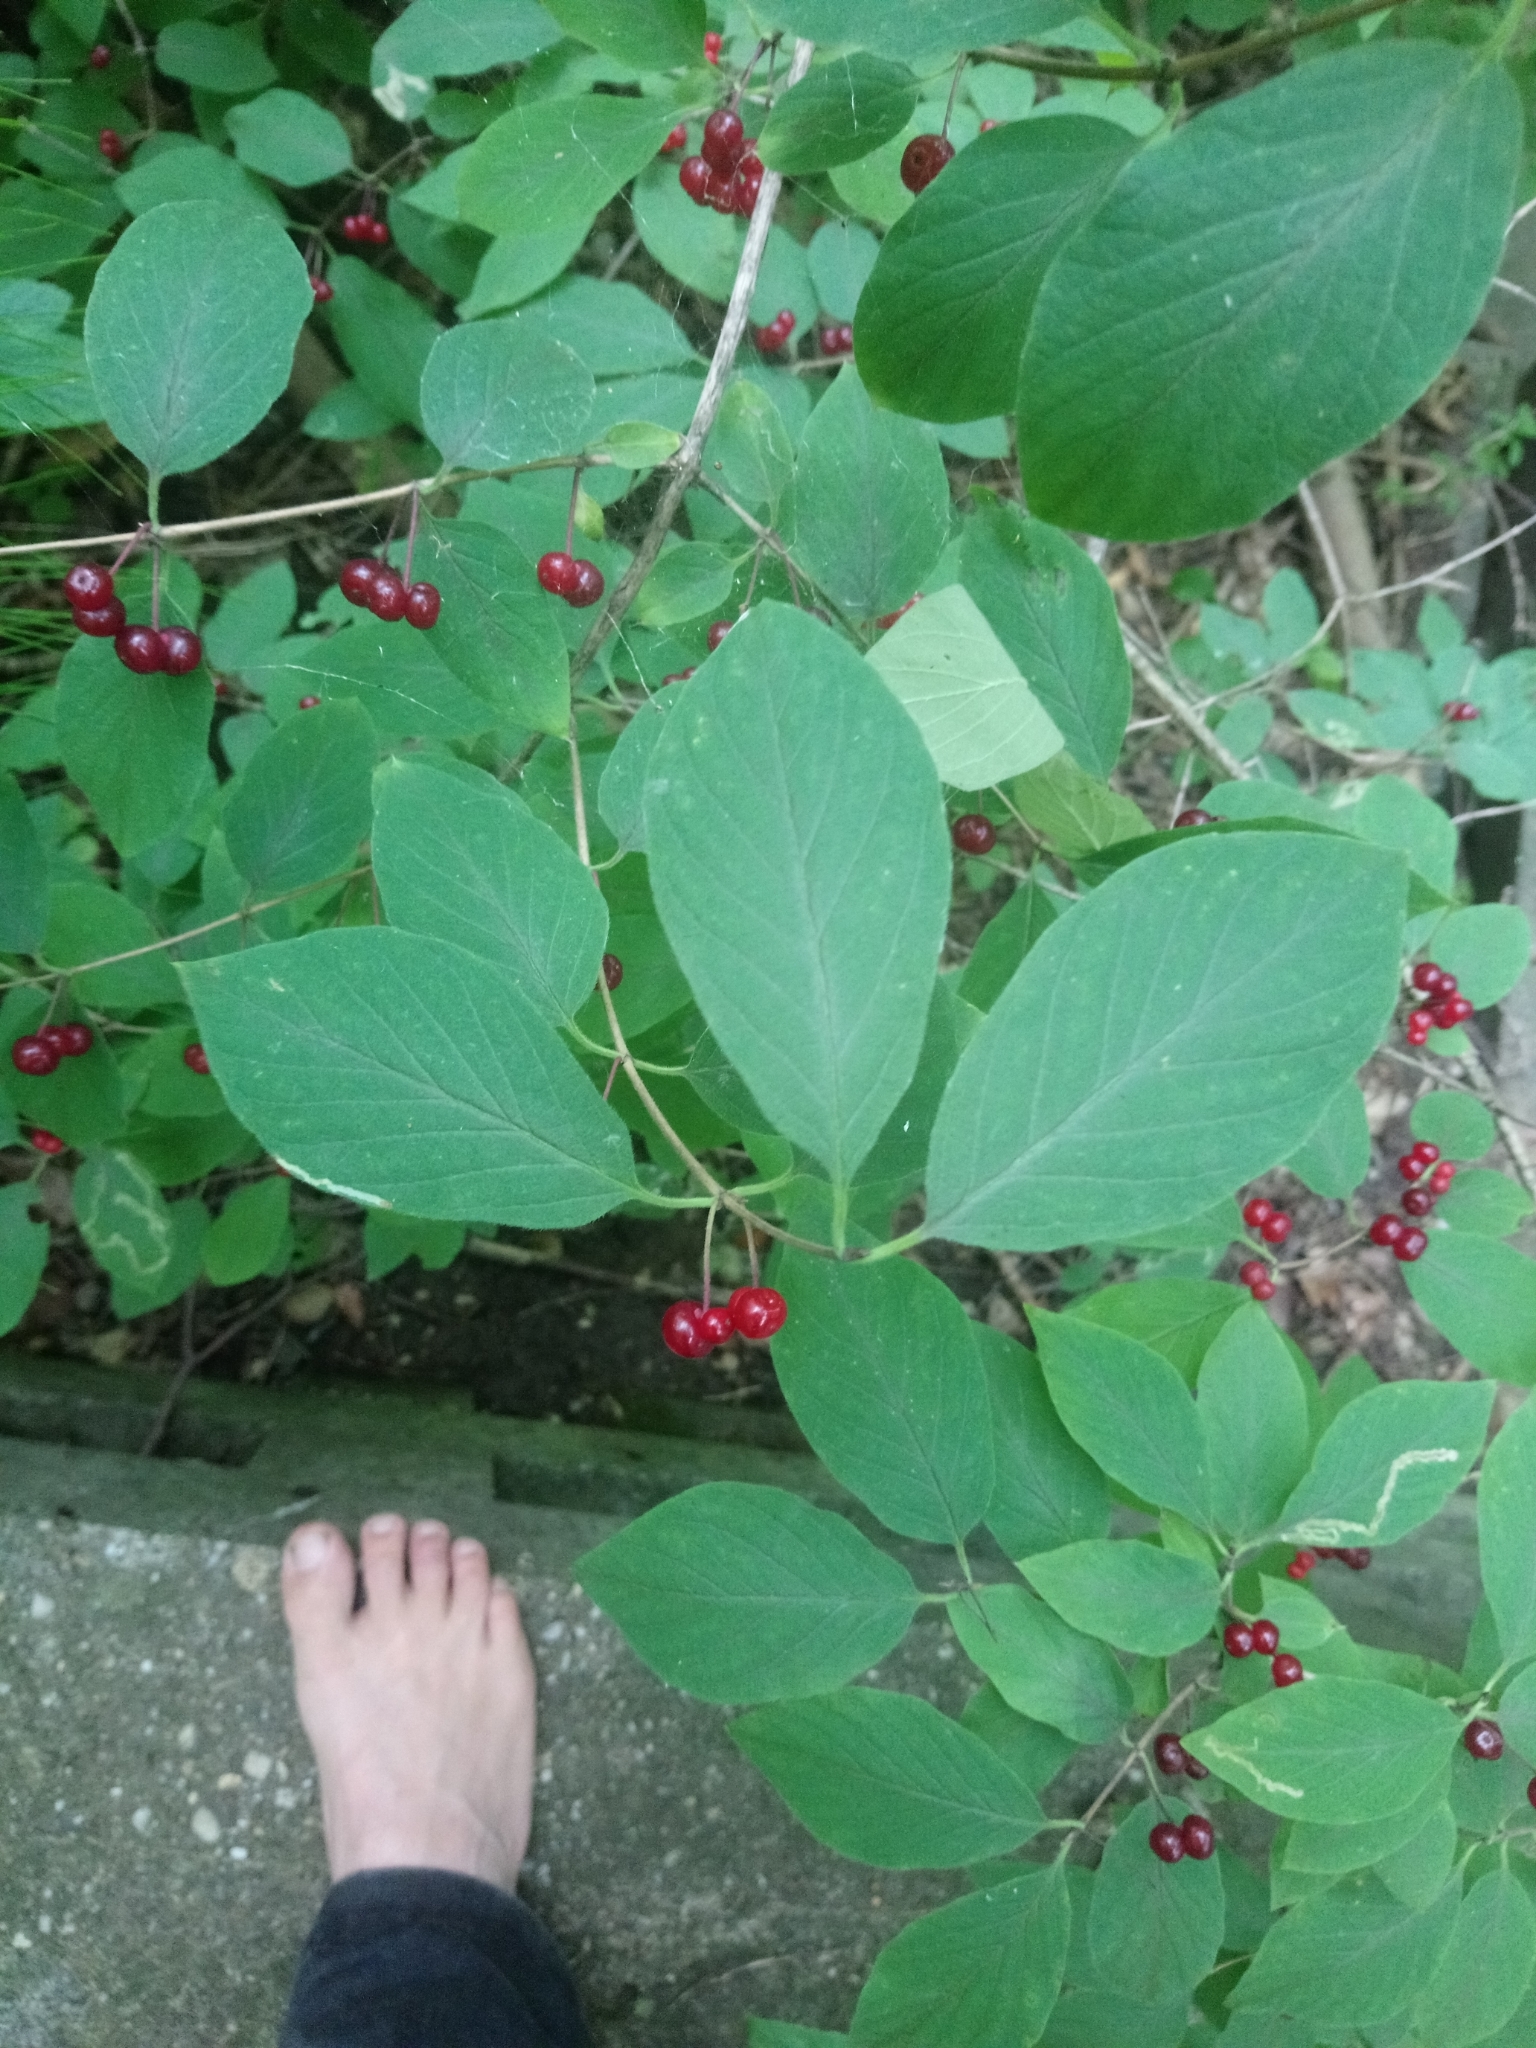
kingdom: Plantae
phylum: Tracheophyta
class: Magnoliopsida
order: Dipsacales
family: Caprifoliaceae
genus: Lonicera
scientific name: Lonicera xylosteum
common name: Fly honeysuckle
